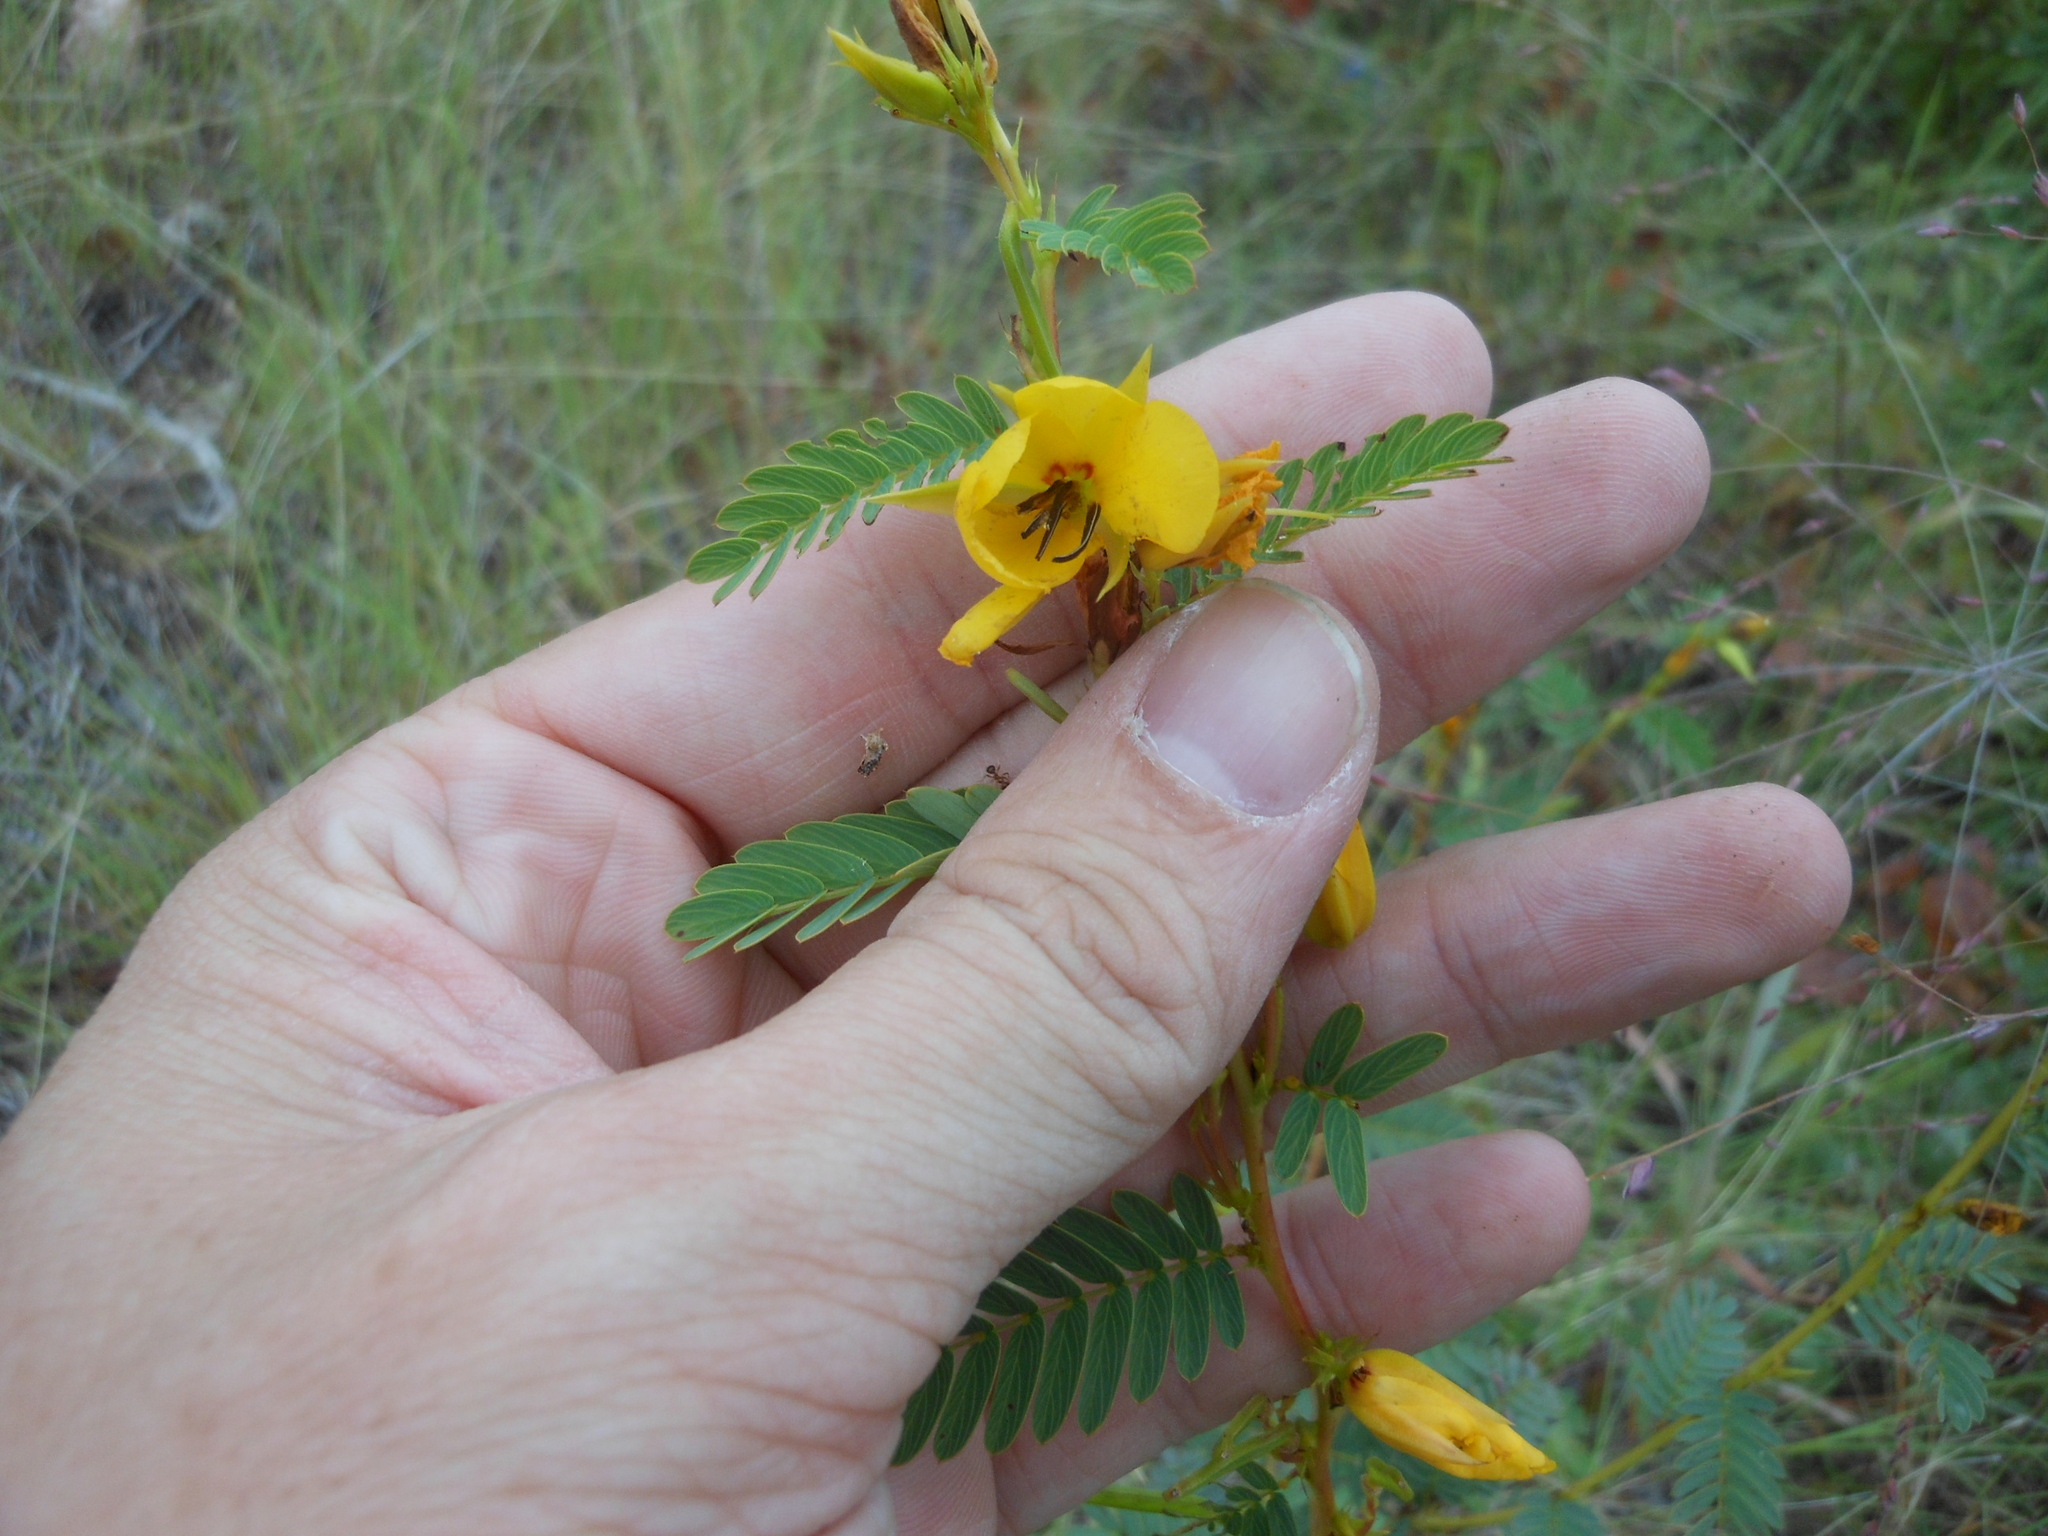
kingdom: Plantae
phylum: Tracheophyta
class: Magnoliopsida
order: Fabales
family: Fabaceae
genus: Chamaecrista
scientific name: Chamaecrista fasciculata
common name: Golden cassia
